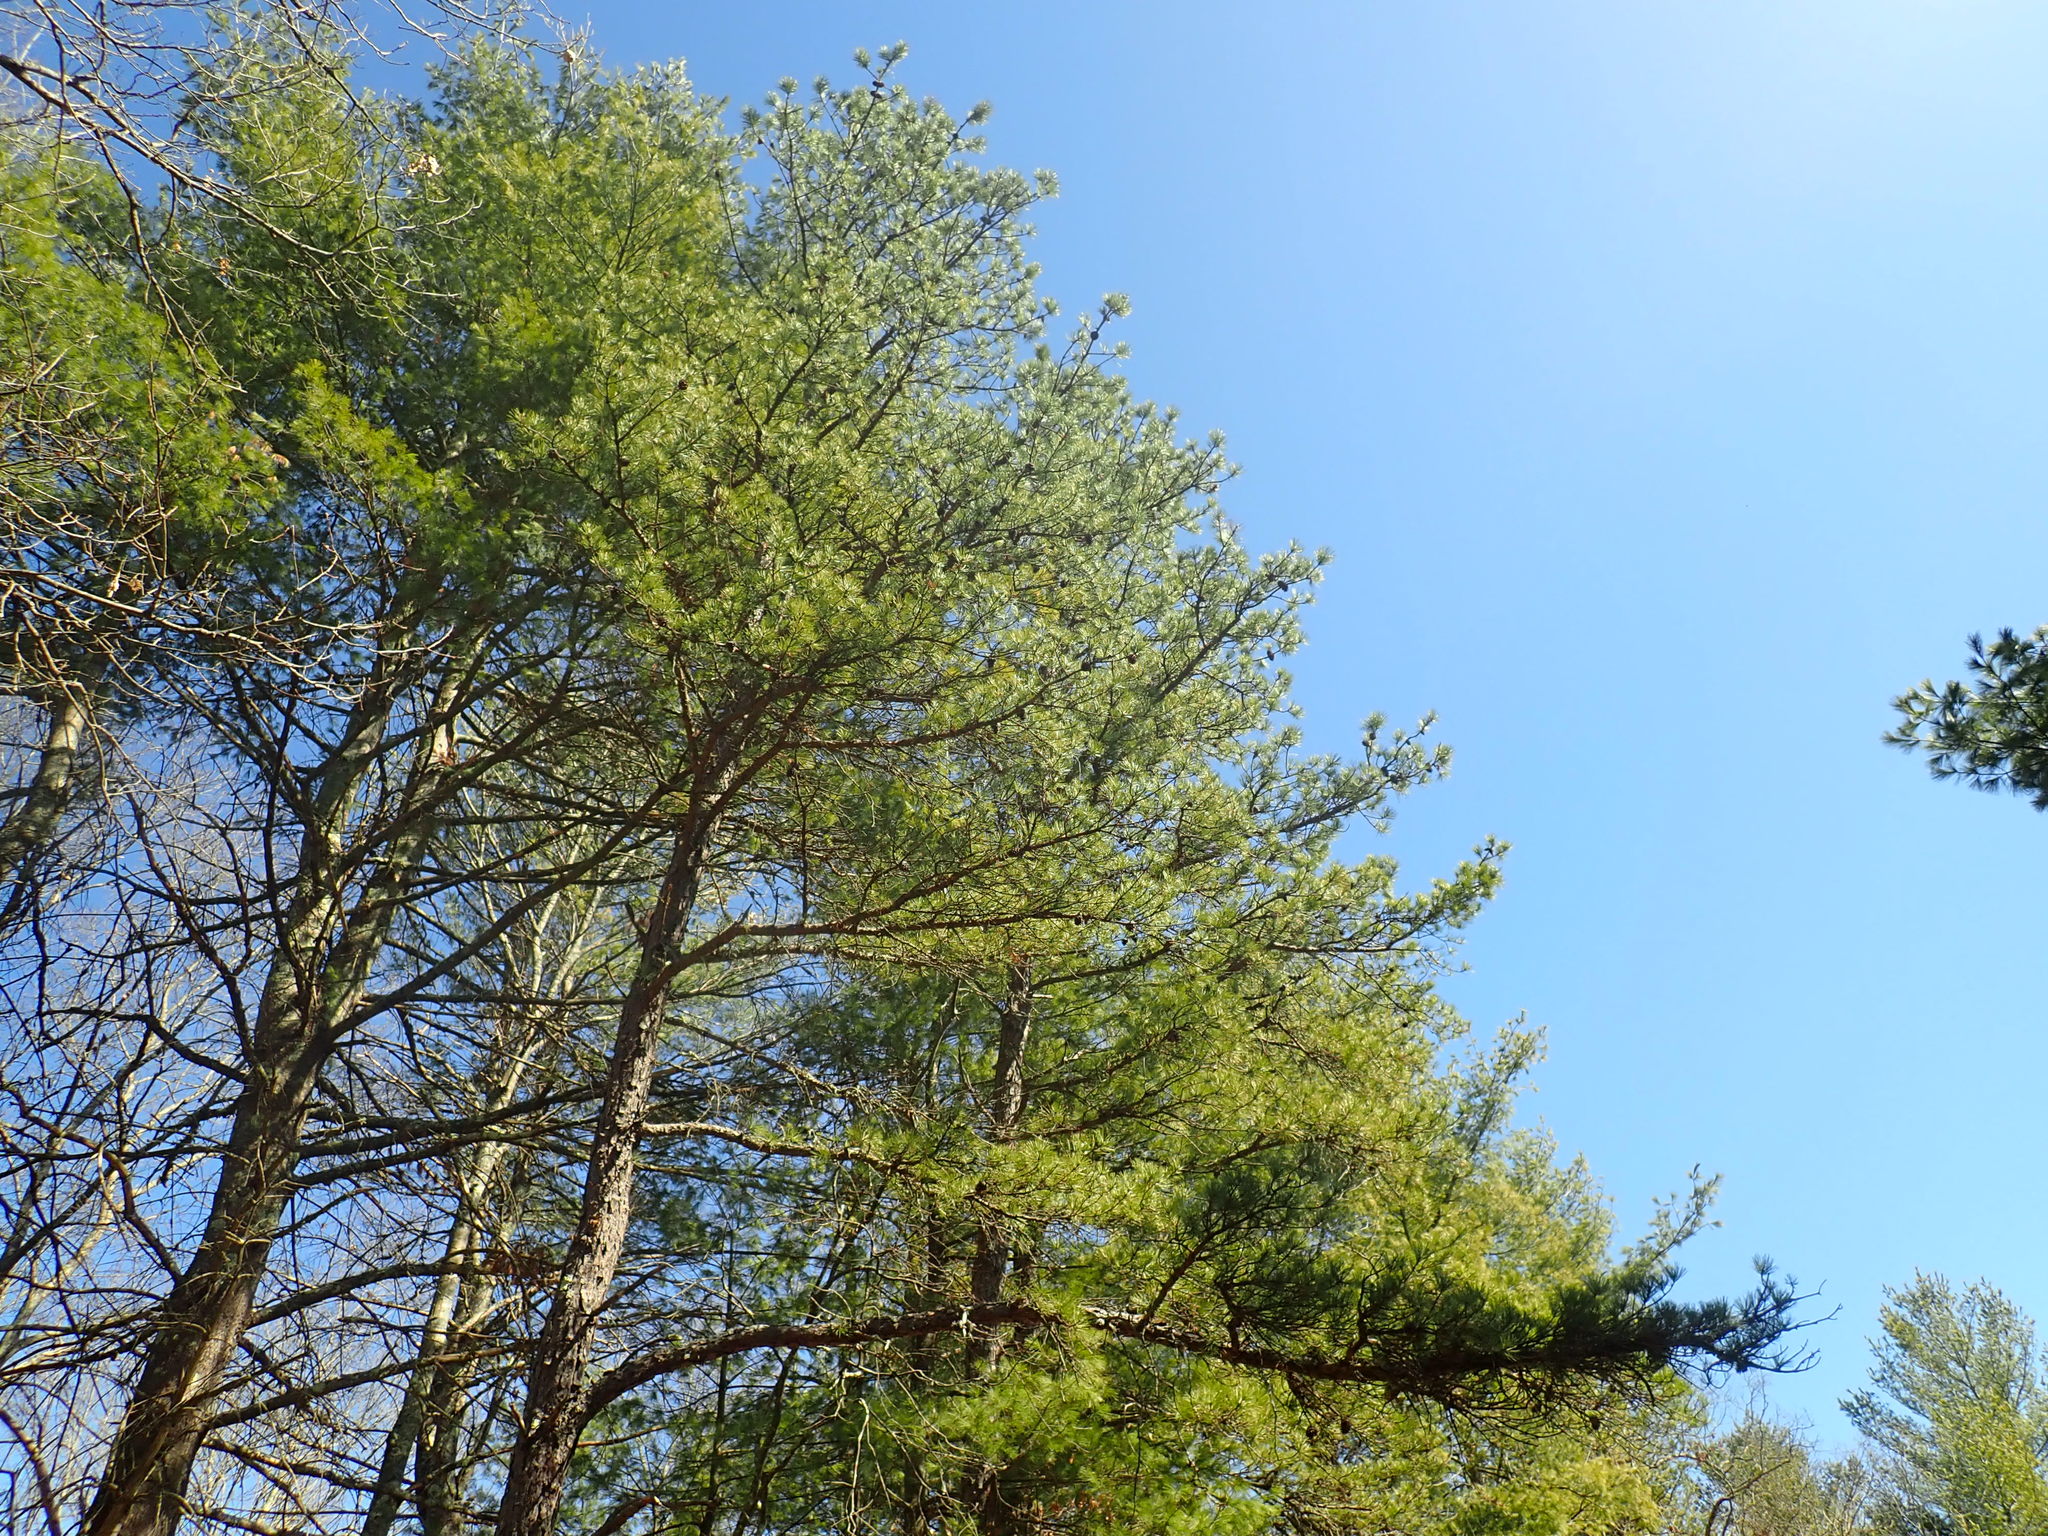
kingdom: Plantae
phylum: Tracheophyta
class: Pinopsida
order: Pinales
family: Pinaceae
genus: Pinus
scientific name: Pinus rigida
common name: Pitch pine
